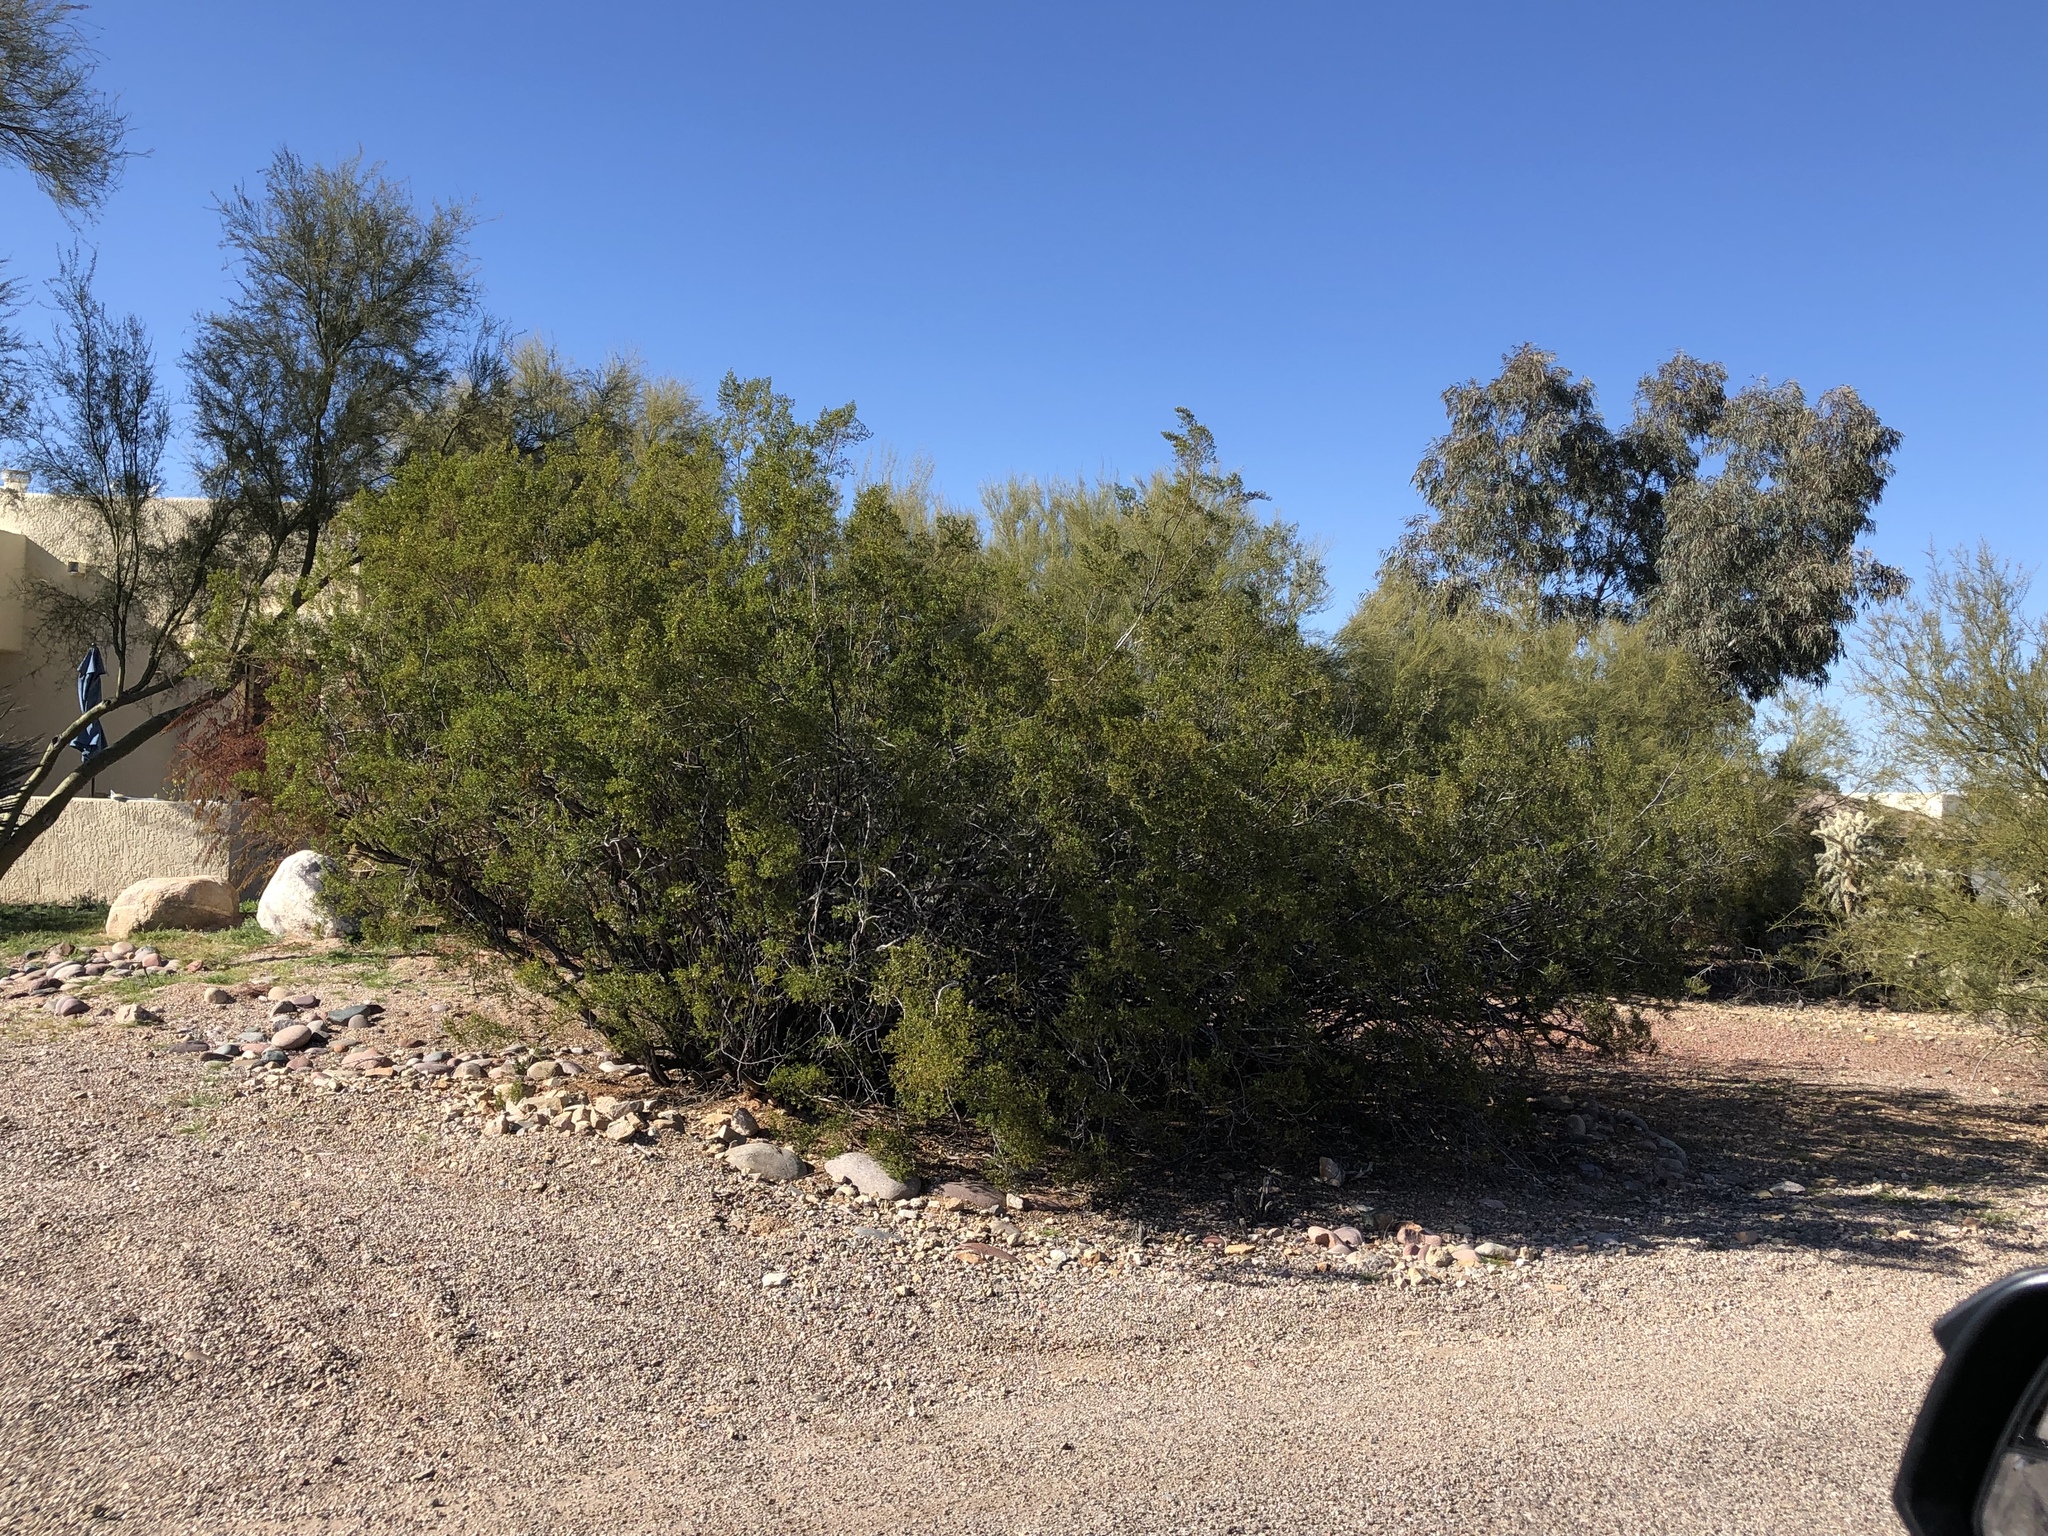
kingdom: Plantae
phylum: Tracheophyta
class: Magnoliopsida
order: Zygophyllales
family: Zygophyllaceae
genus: Larrea
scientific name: Larrea tridentata
